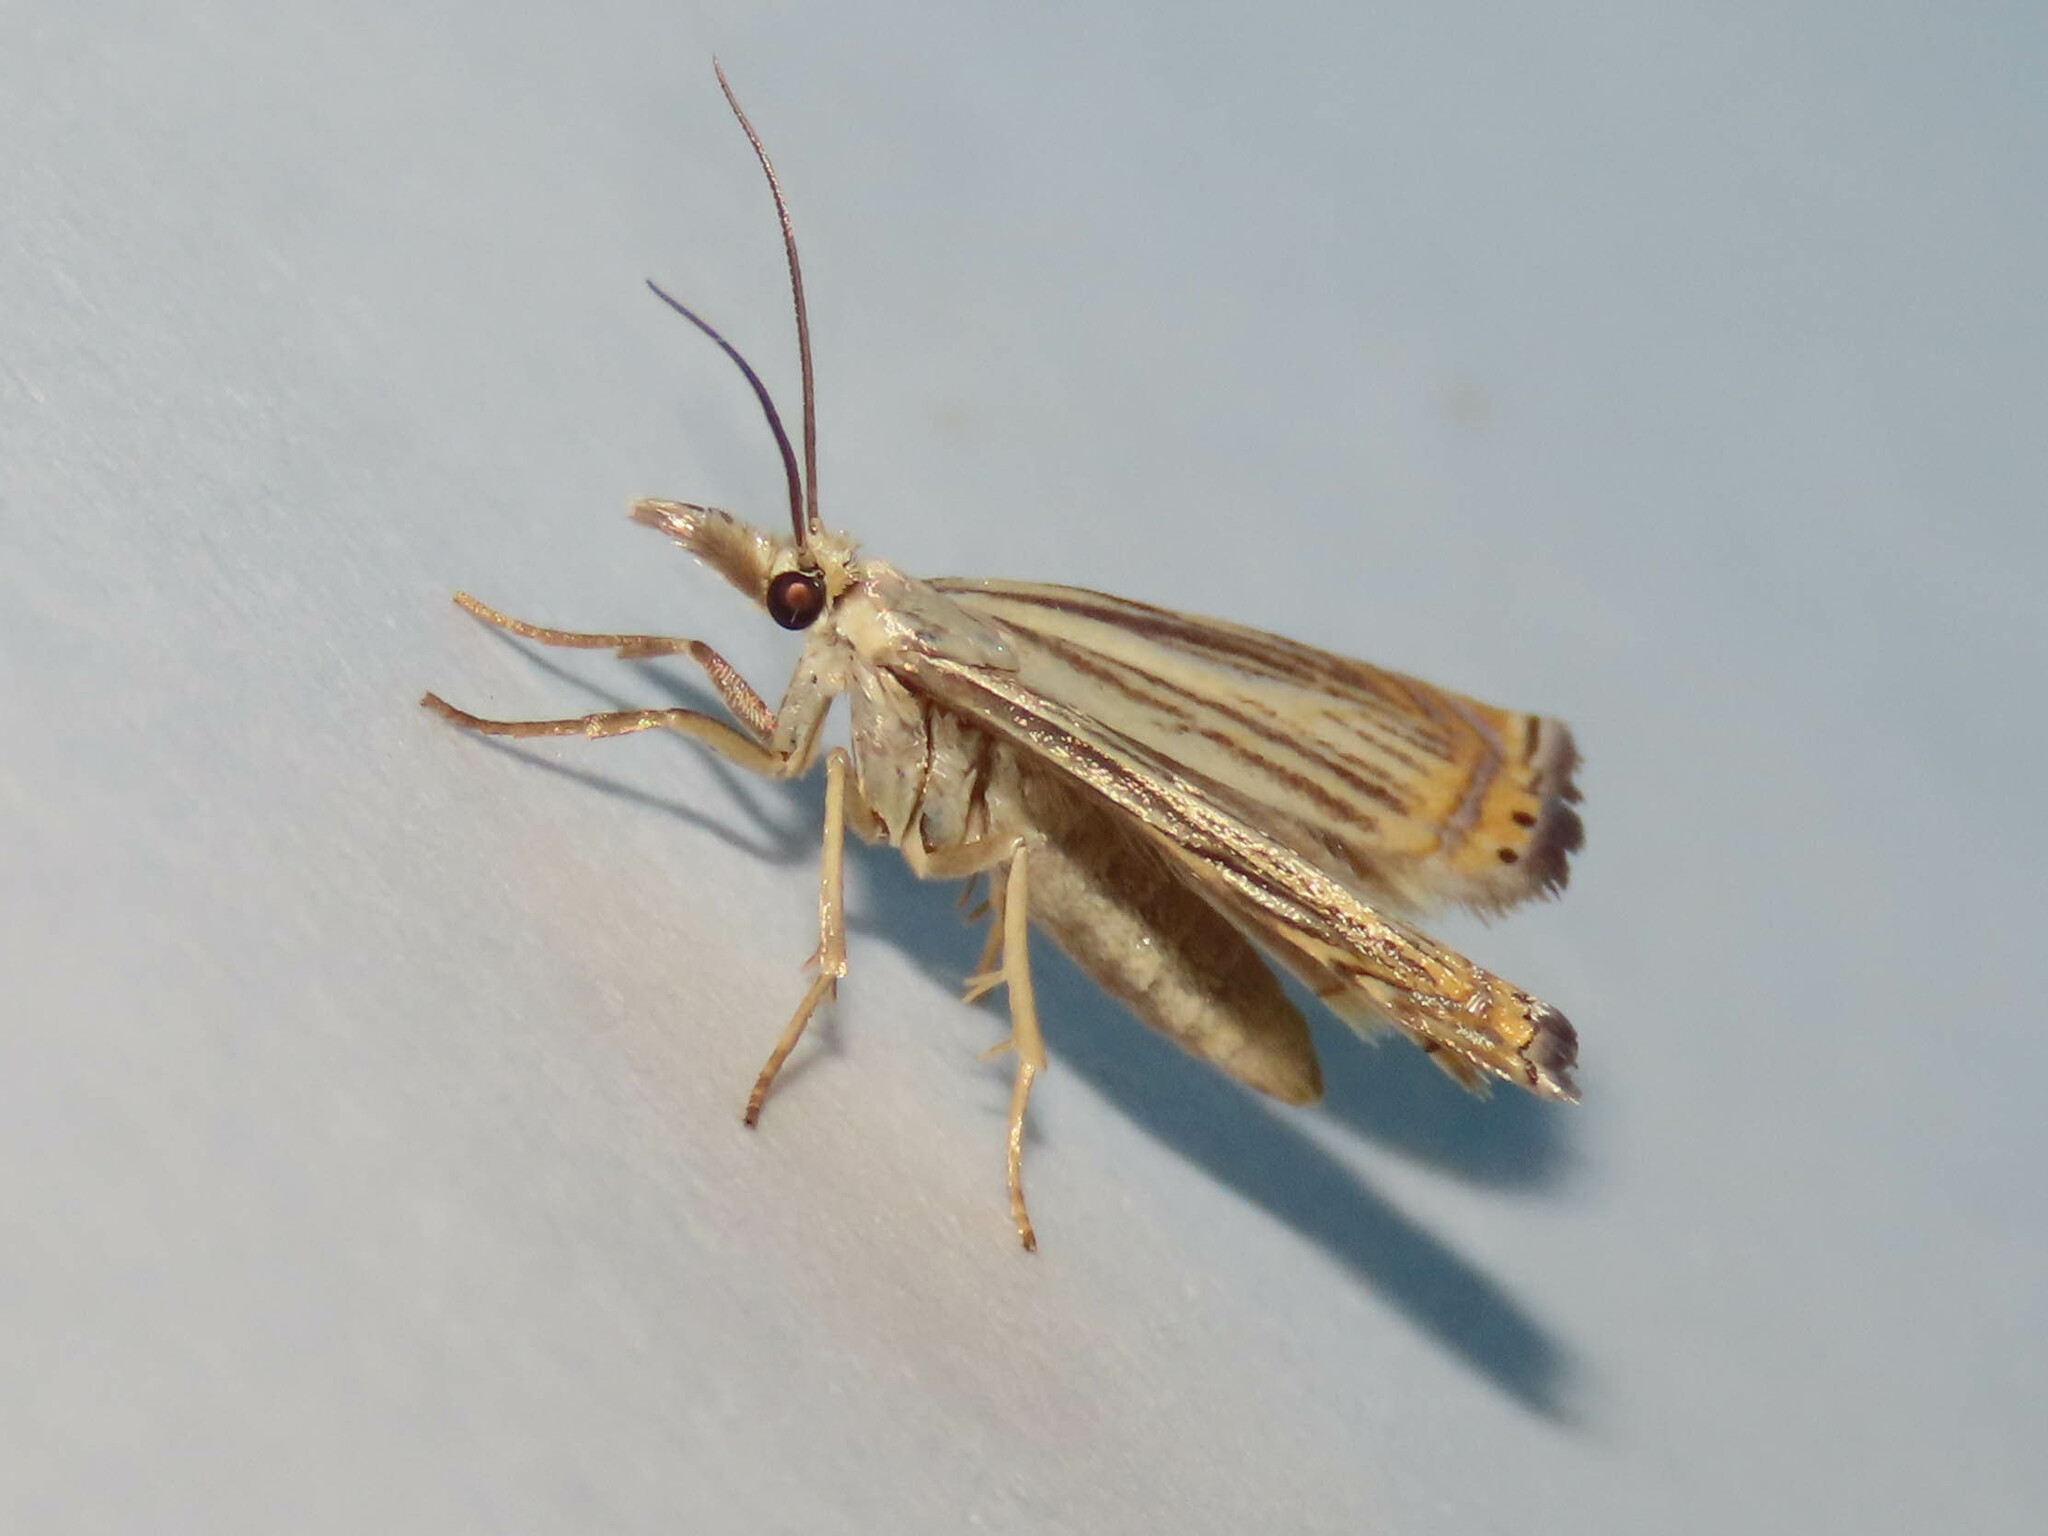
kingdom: Animalia
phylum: Arthropoda
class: Insecta
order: Lepidoptera
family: Crambidae
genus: Chrysoteuchia
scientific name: Chrysoteuchia topiarius
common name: Topiary grass-veneer
